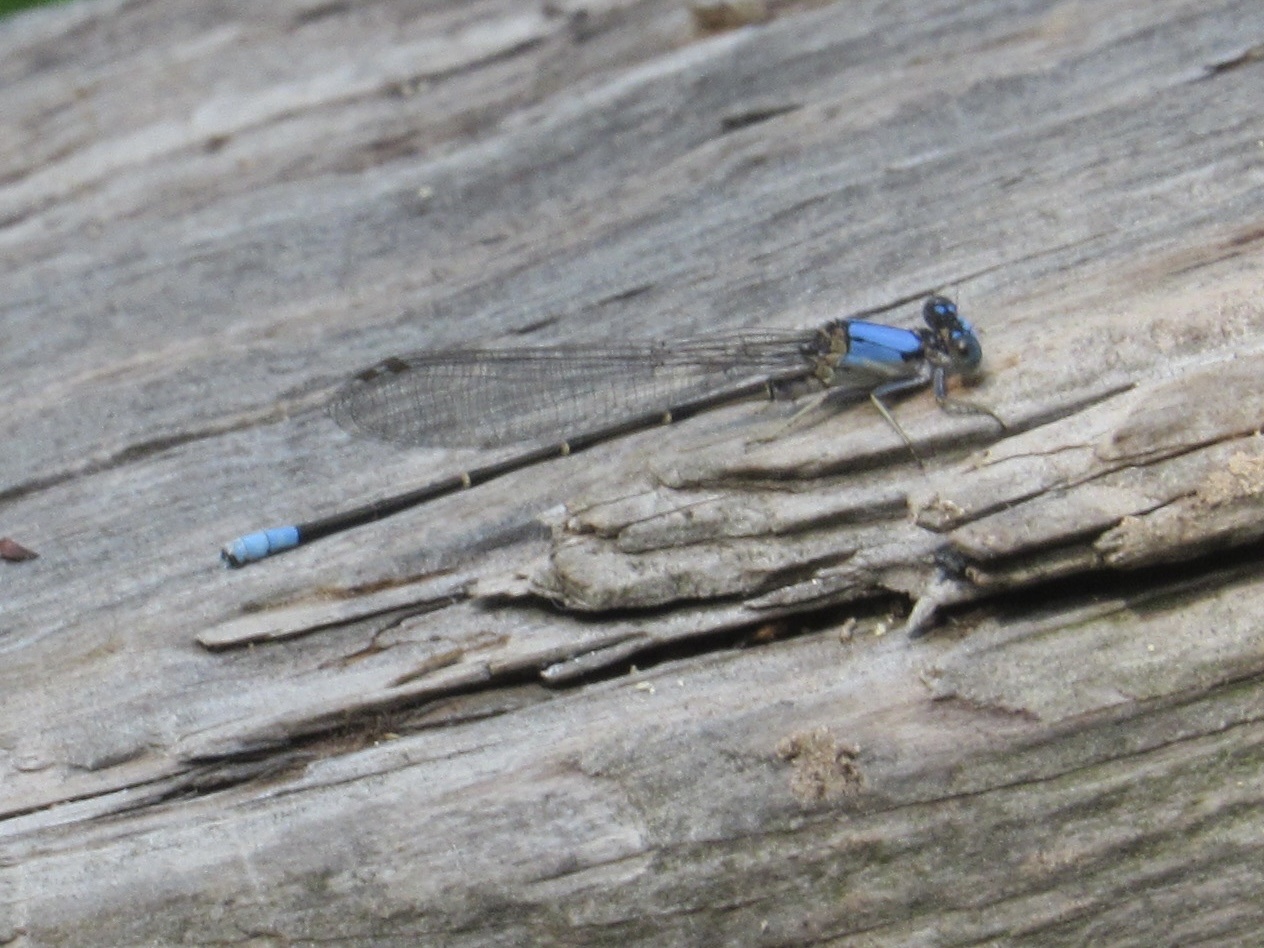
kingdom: Animalia
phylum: Arthropoda
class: Insecta
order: Odonata
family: Coenagrionidae
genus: Argia
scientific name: Argia apicalis
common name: Blue-fronted dancer
